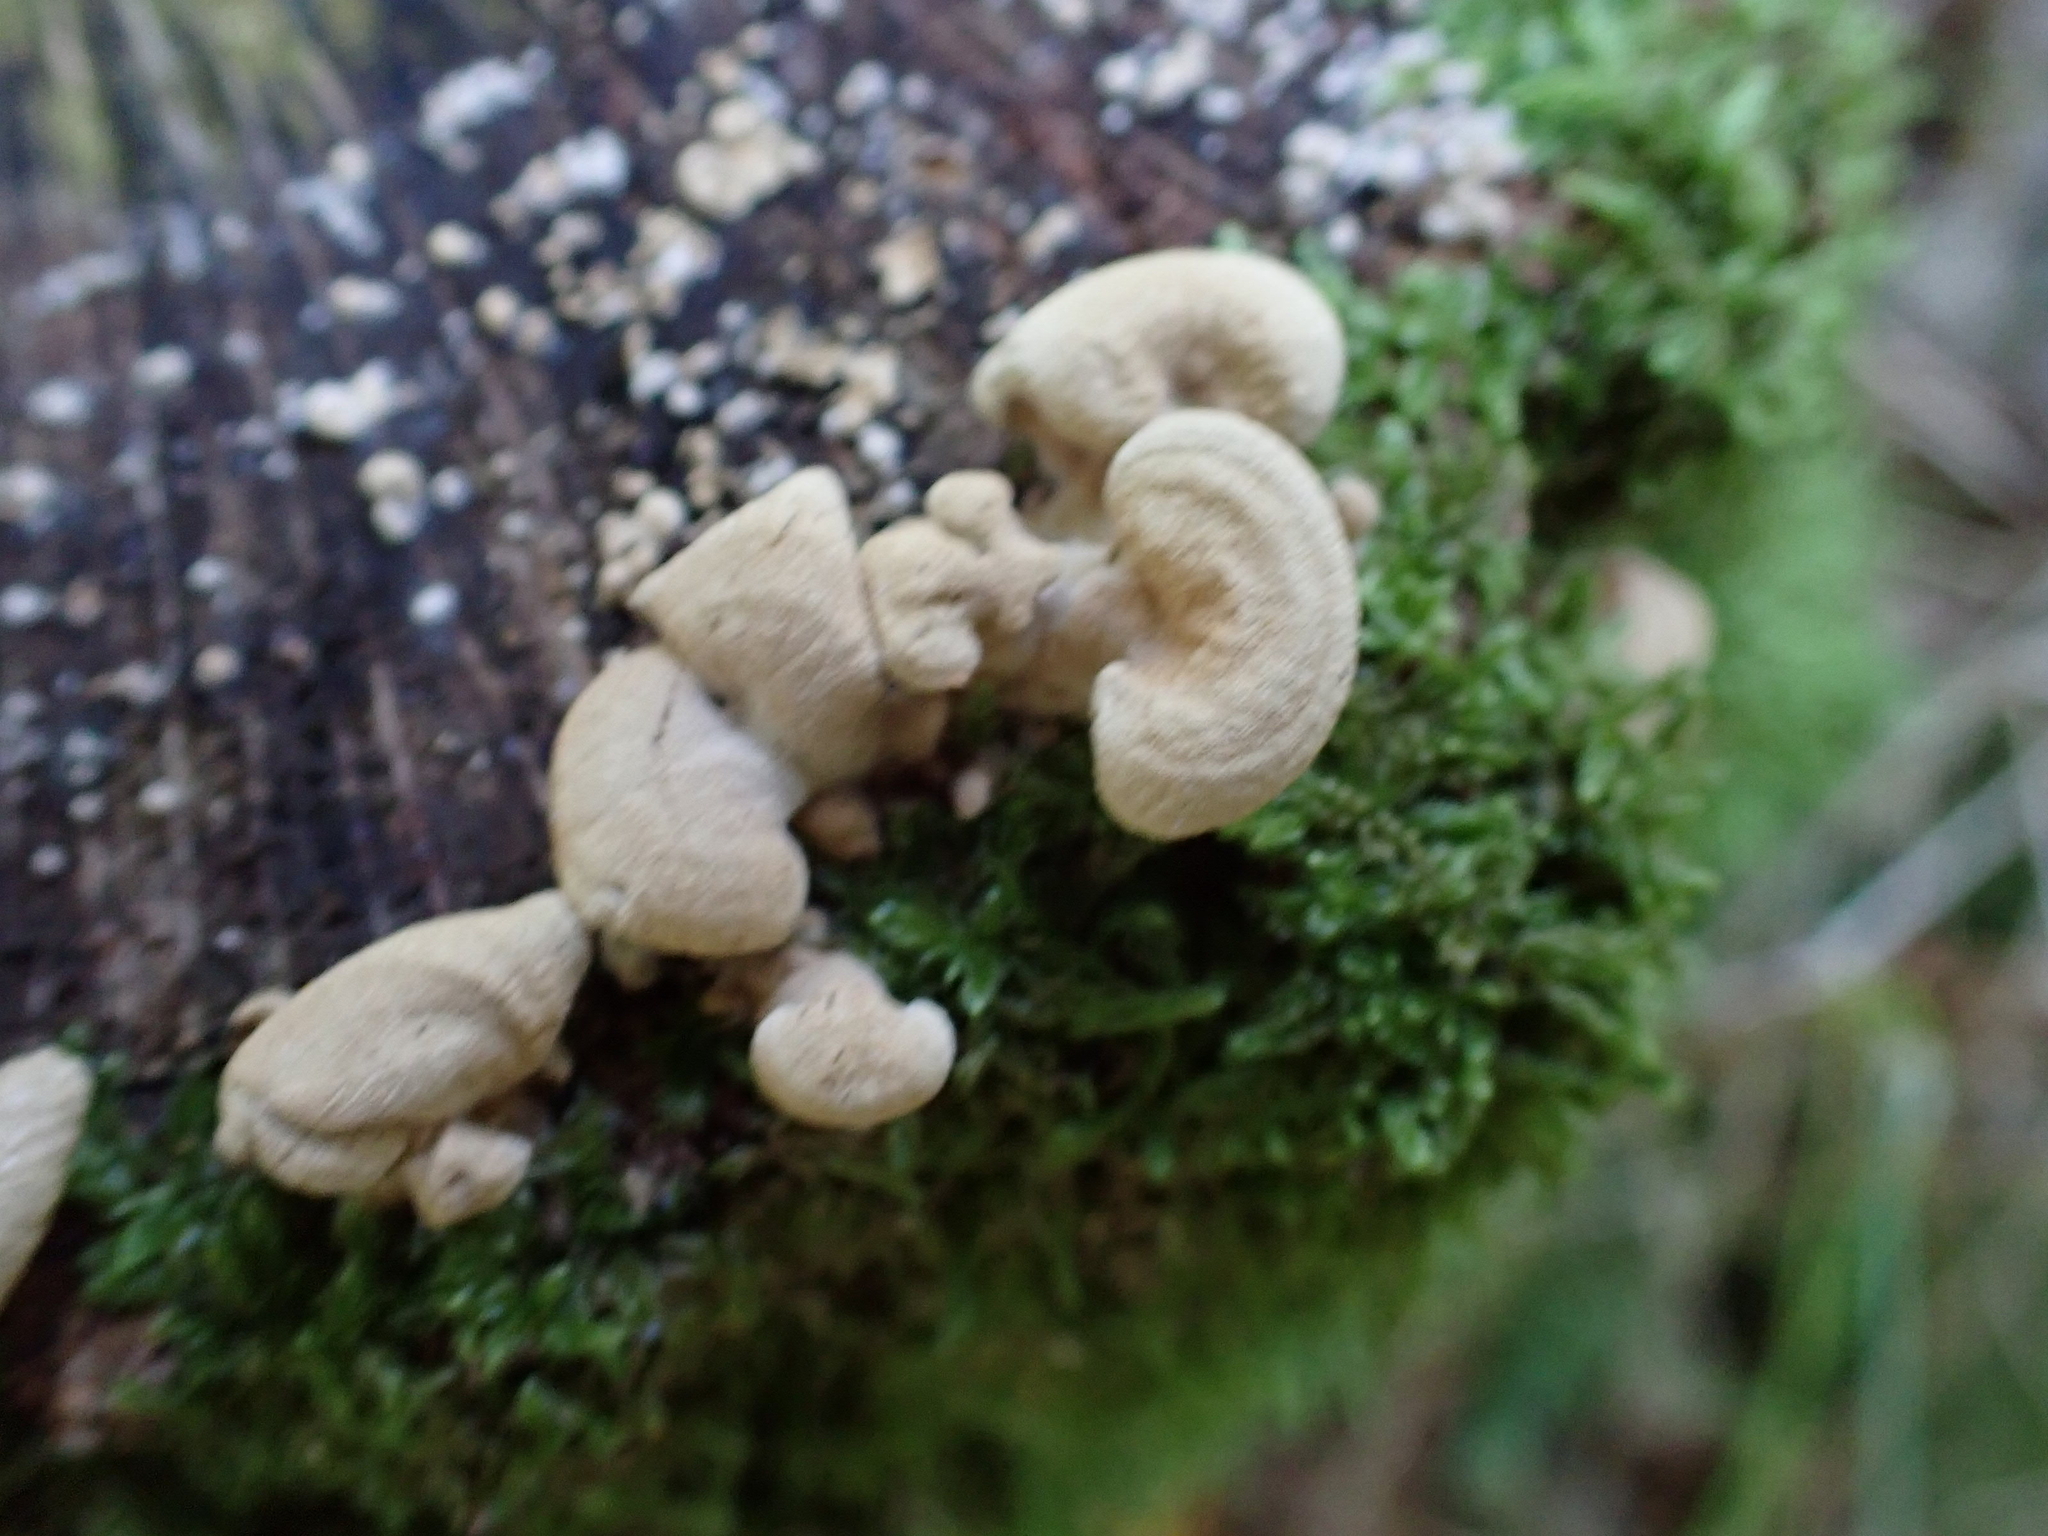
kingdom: Fungi
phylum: Basidiomycota
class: Agaricomycetes
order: Agaricales
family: Mycenaceae
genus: Panellus
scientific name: Panellus stipticus
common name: Bitter oysterling
